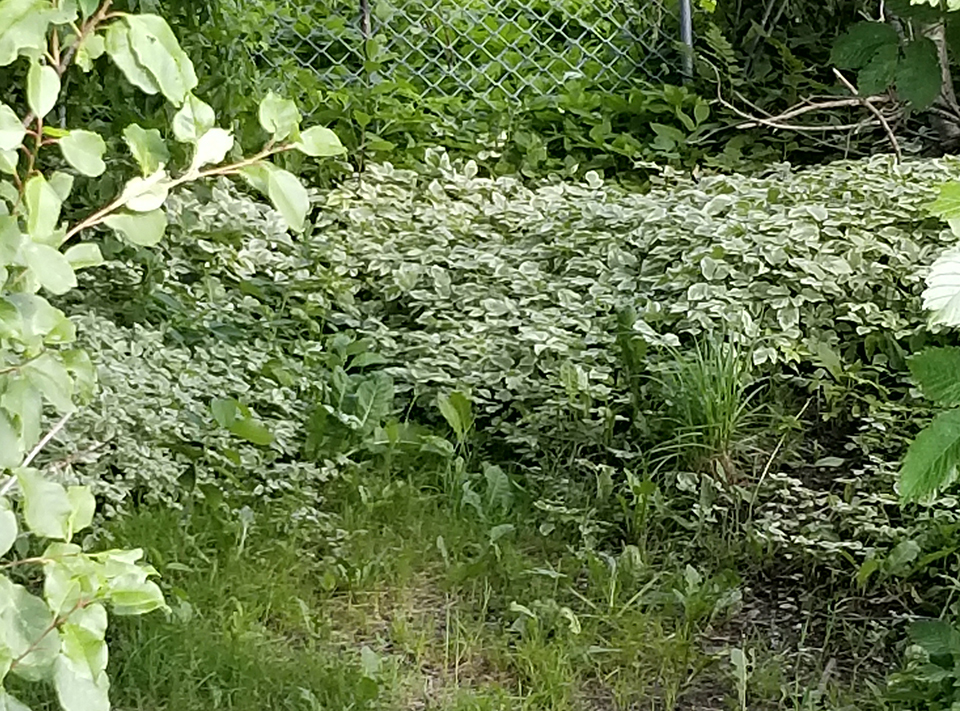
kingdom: Plantae
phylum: Tracheophyta
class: Magnoliopsida
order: Apiales
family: Apiaceae
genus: Aegopodium
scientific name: Aegopodium podagraria
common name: Ground-elder
